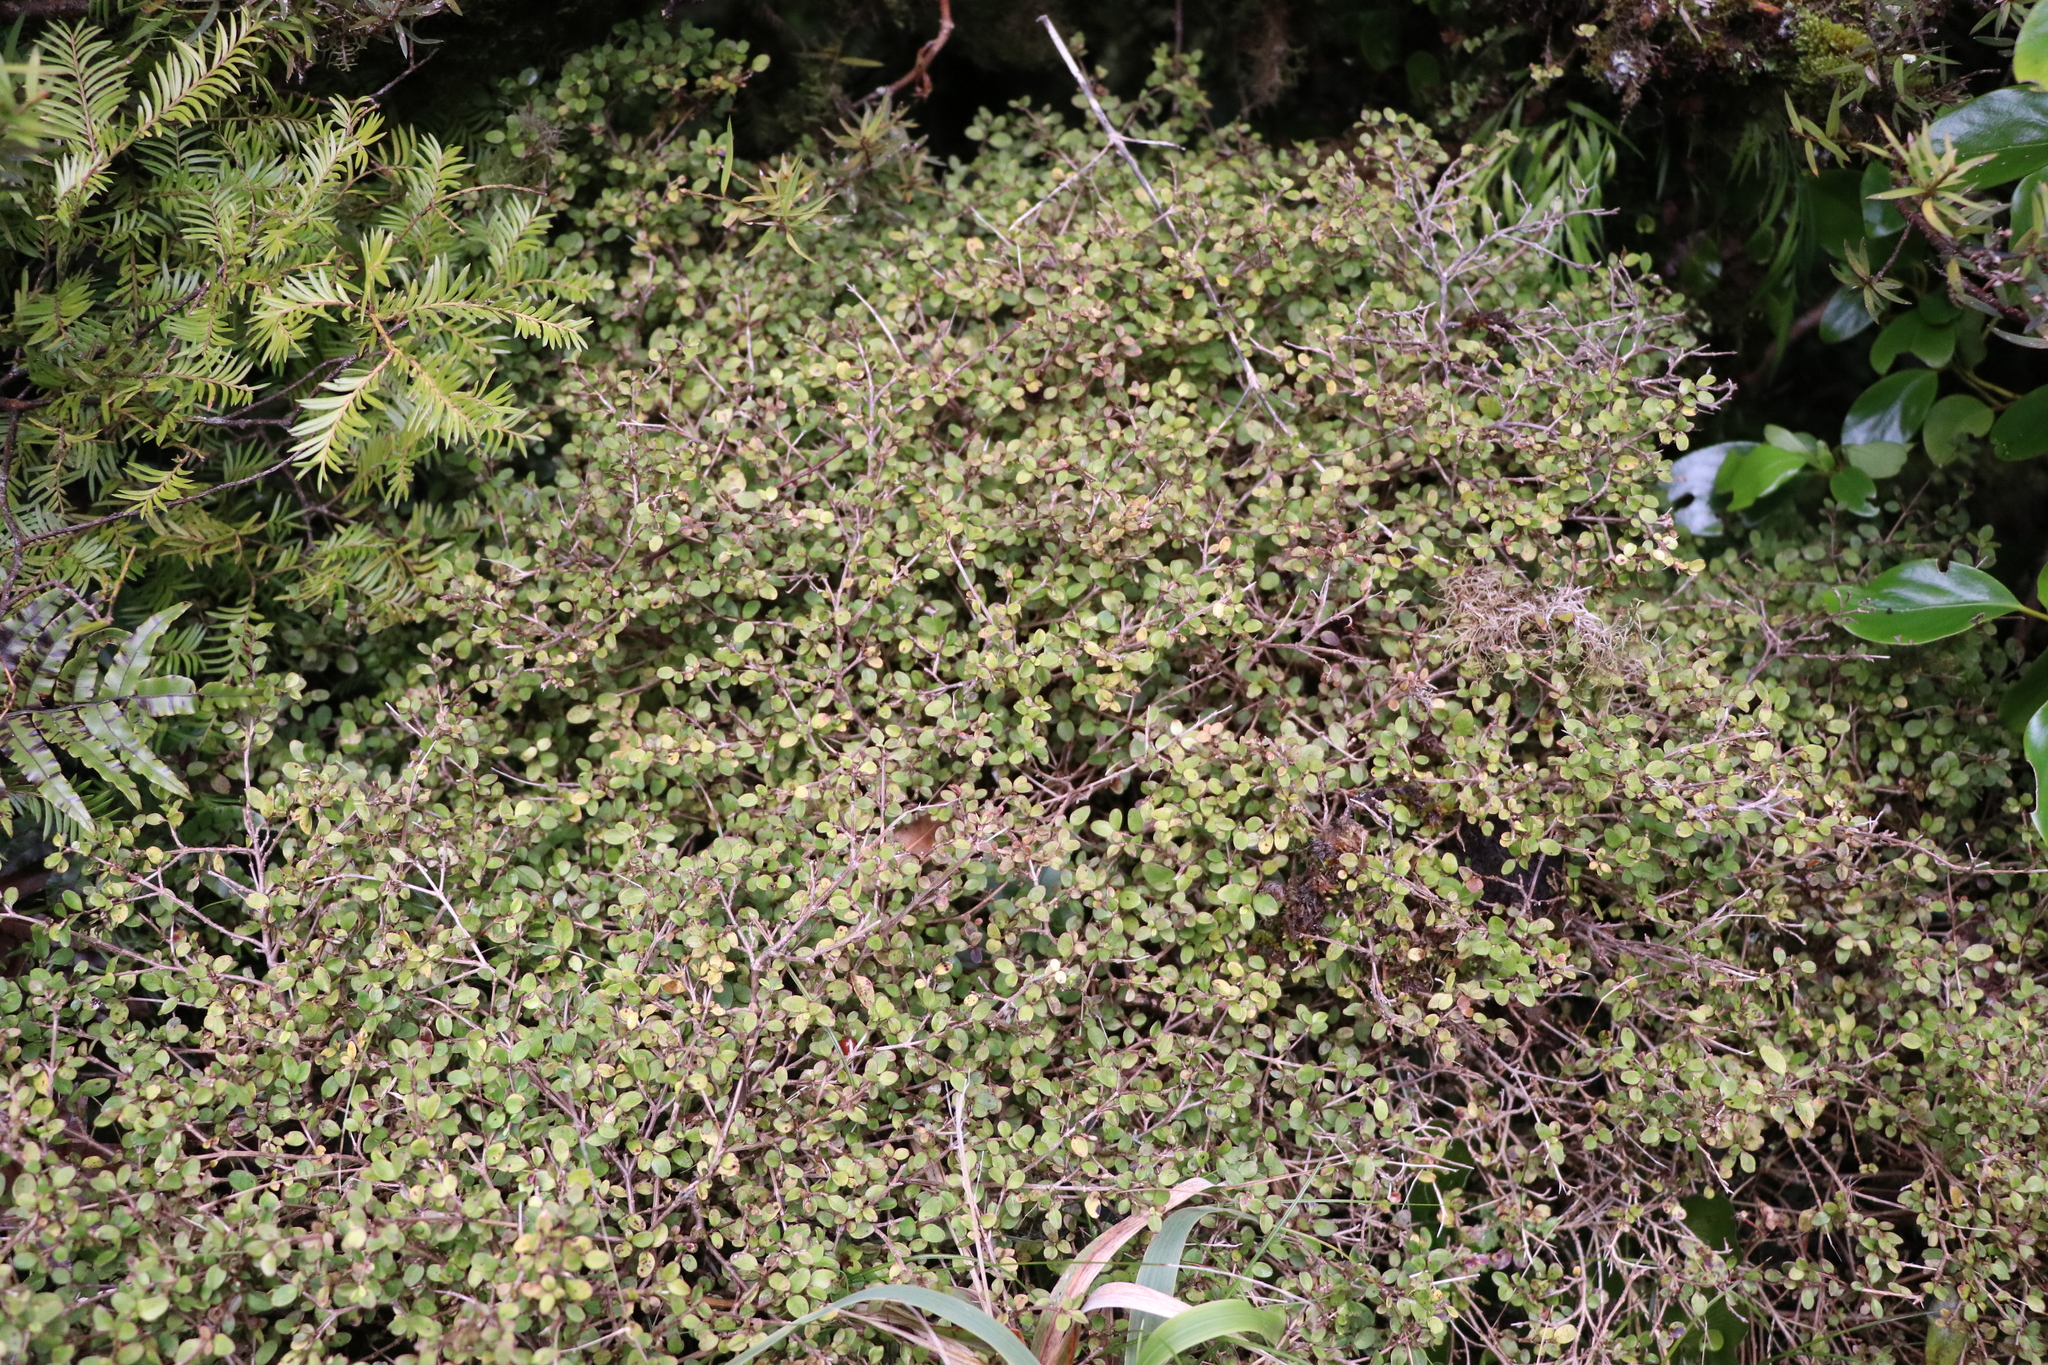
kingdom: Plantae
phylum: Tracheophyta
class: Magnoliopsida
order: Gentianales
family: Rubiaceae
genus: Coprosma
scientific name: Coprosma foetidissima
